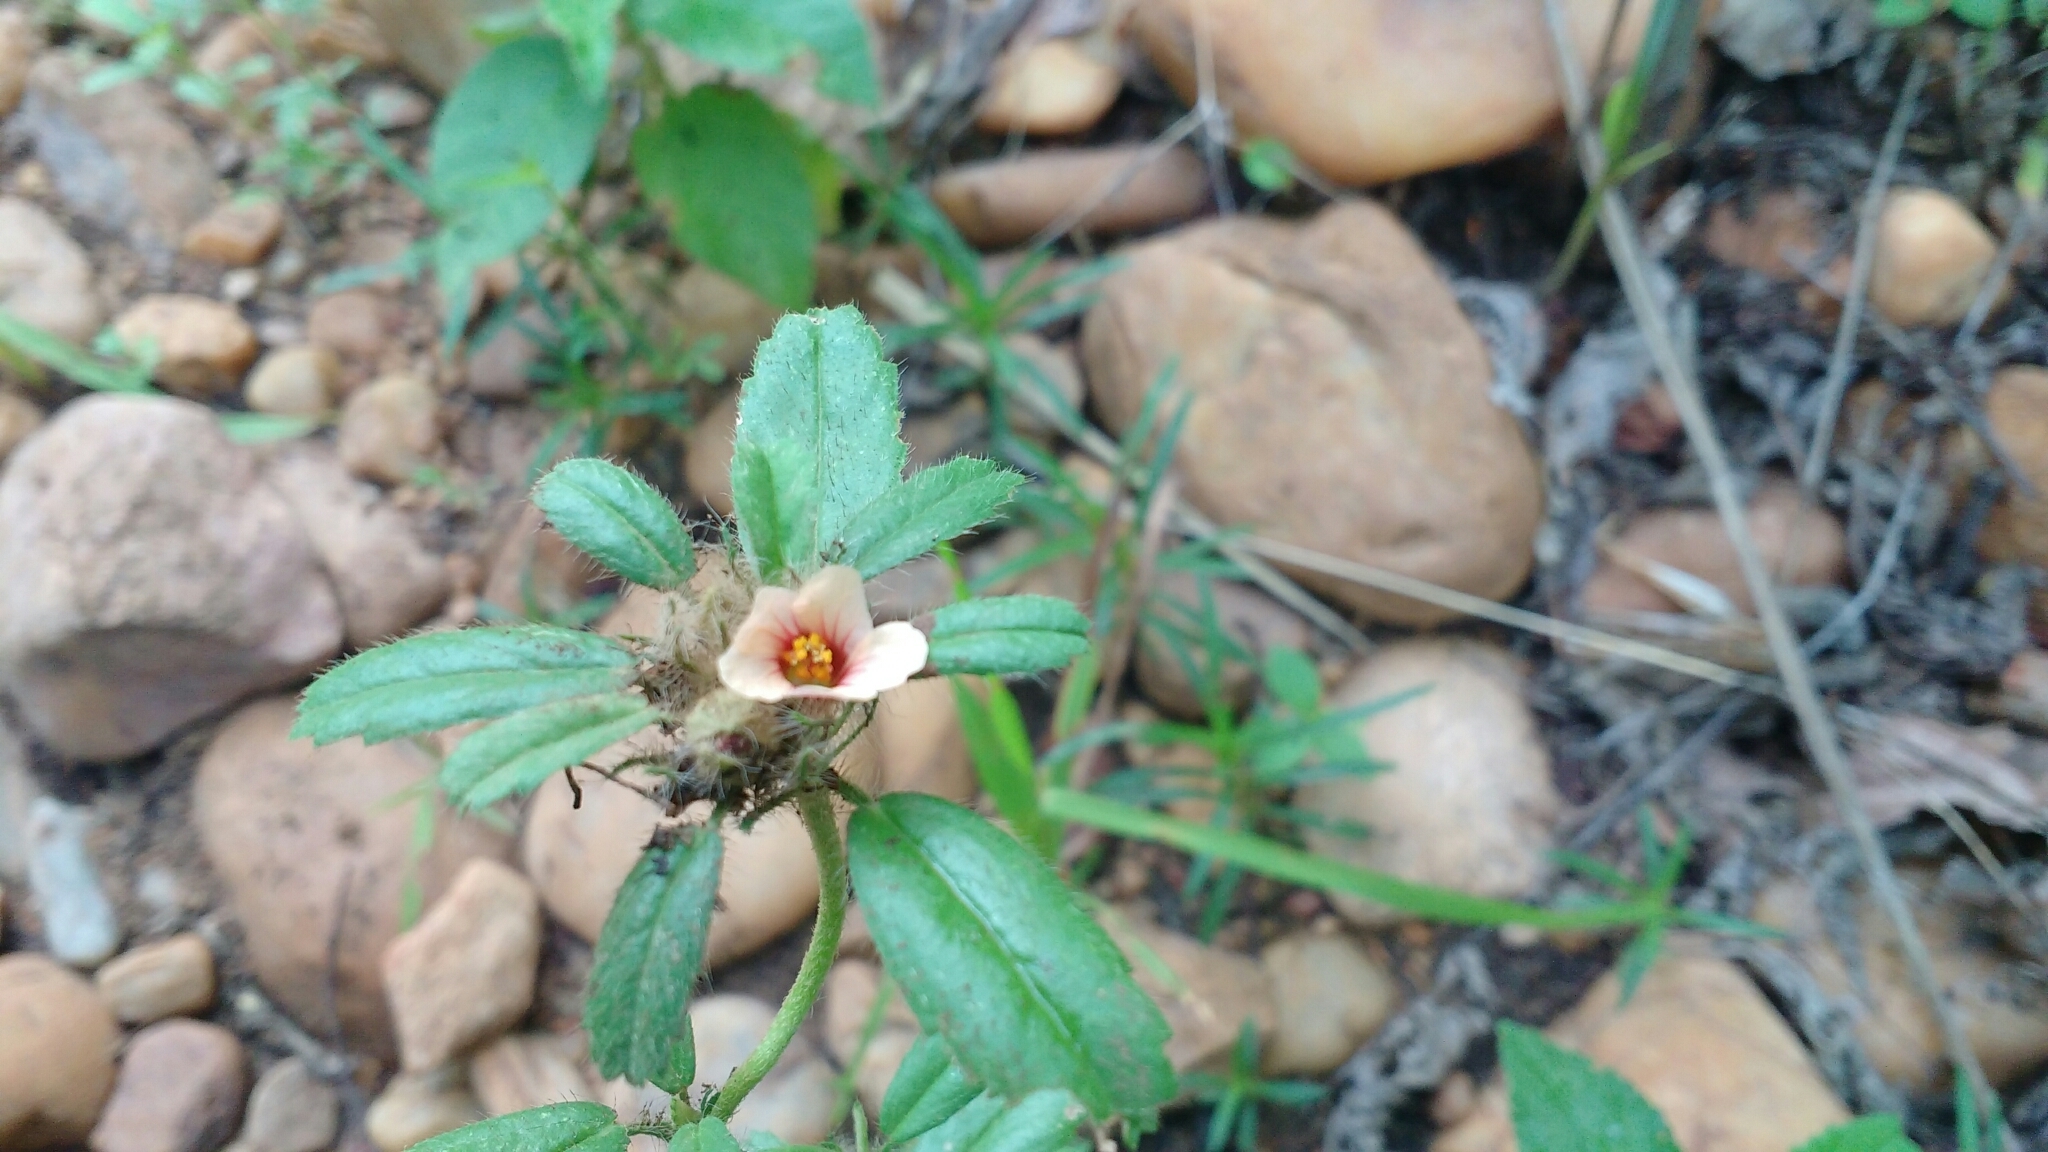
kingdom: Plantae
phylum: Tracheophyta
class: Magnoliopsida
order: Malvales
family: Malvaceae
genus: Sida
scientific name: Sida ciliaris
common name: Bracted fanpetals
